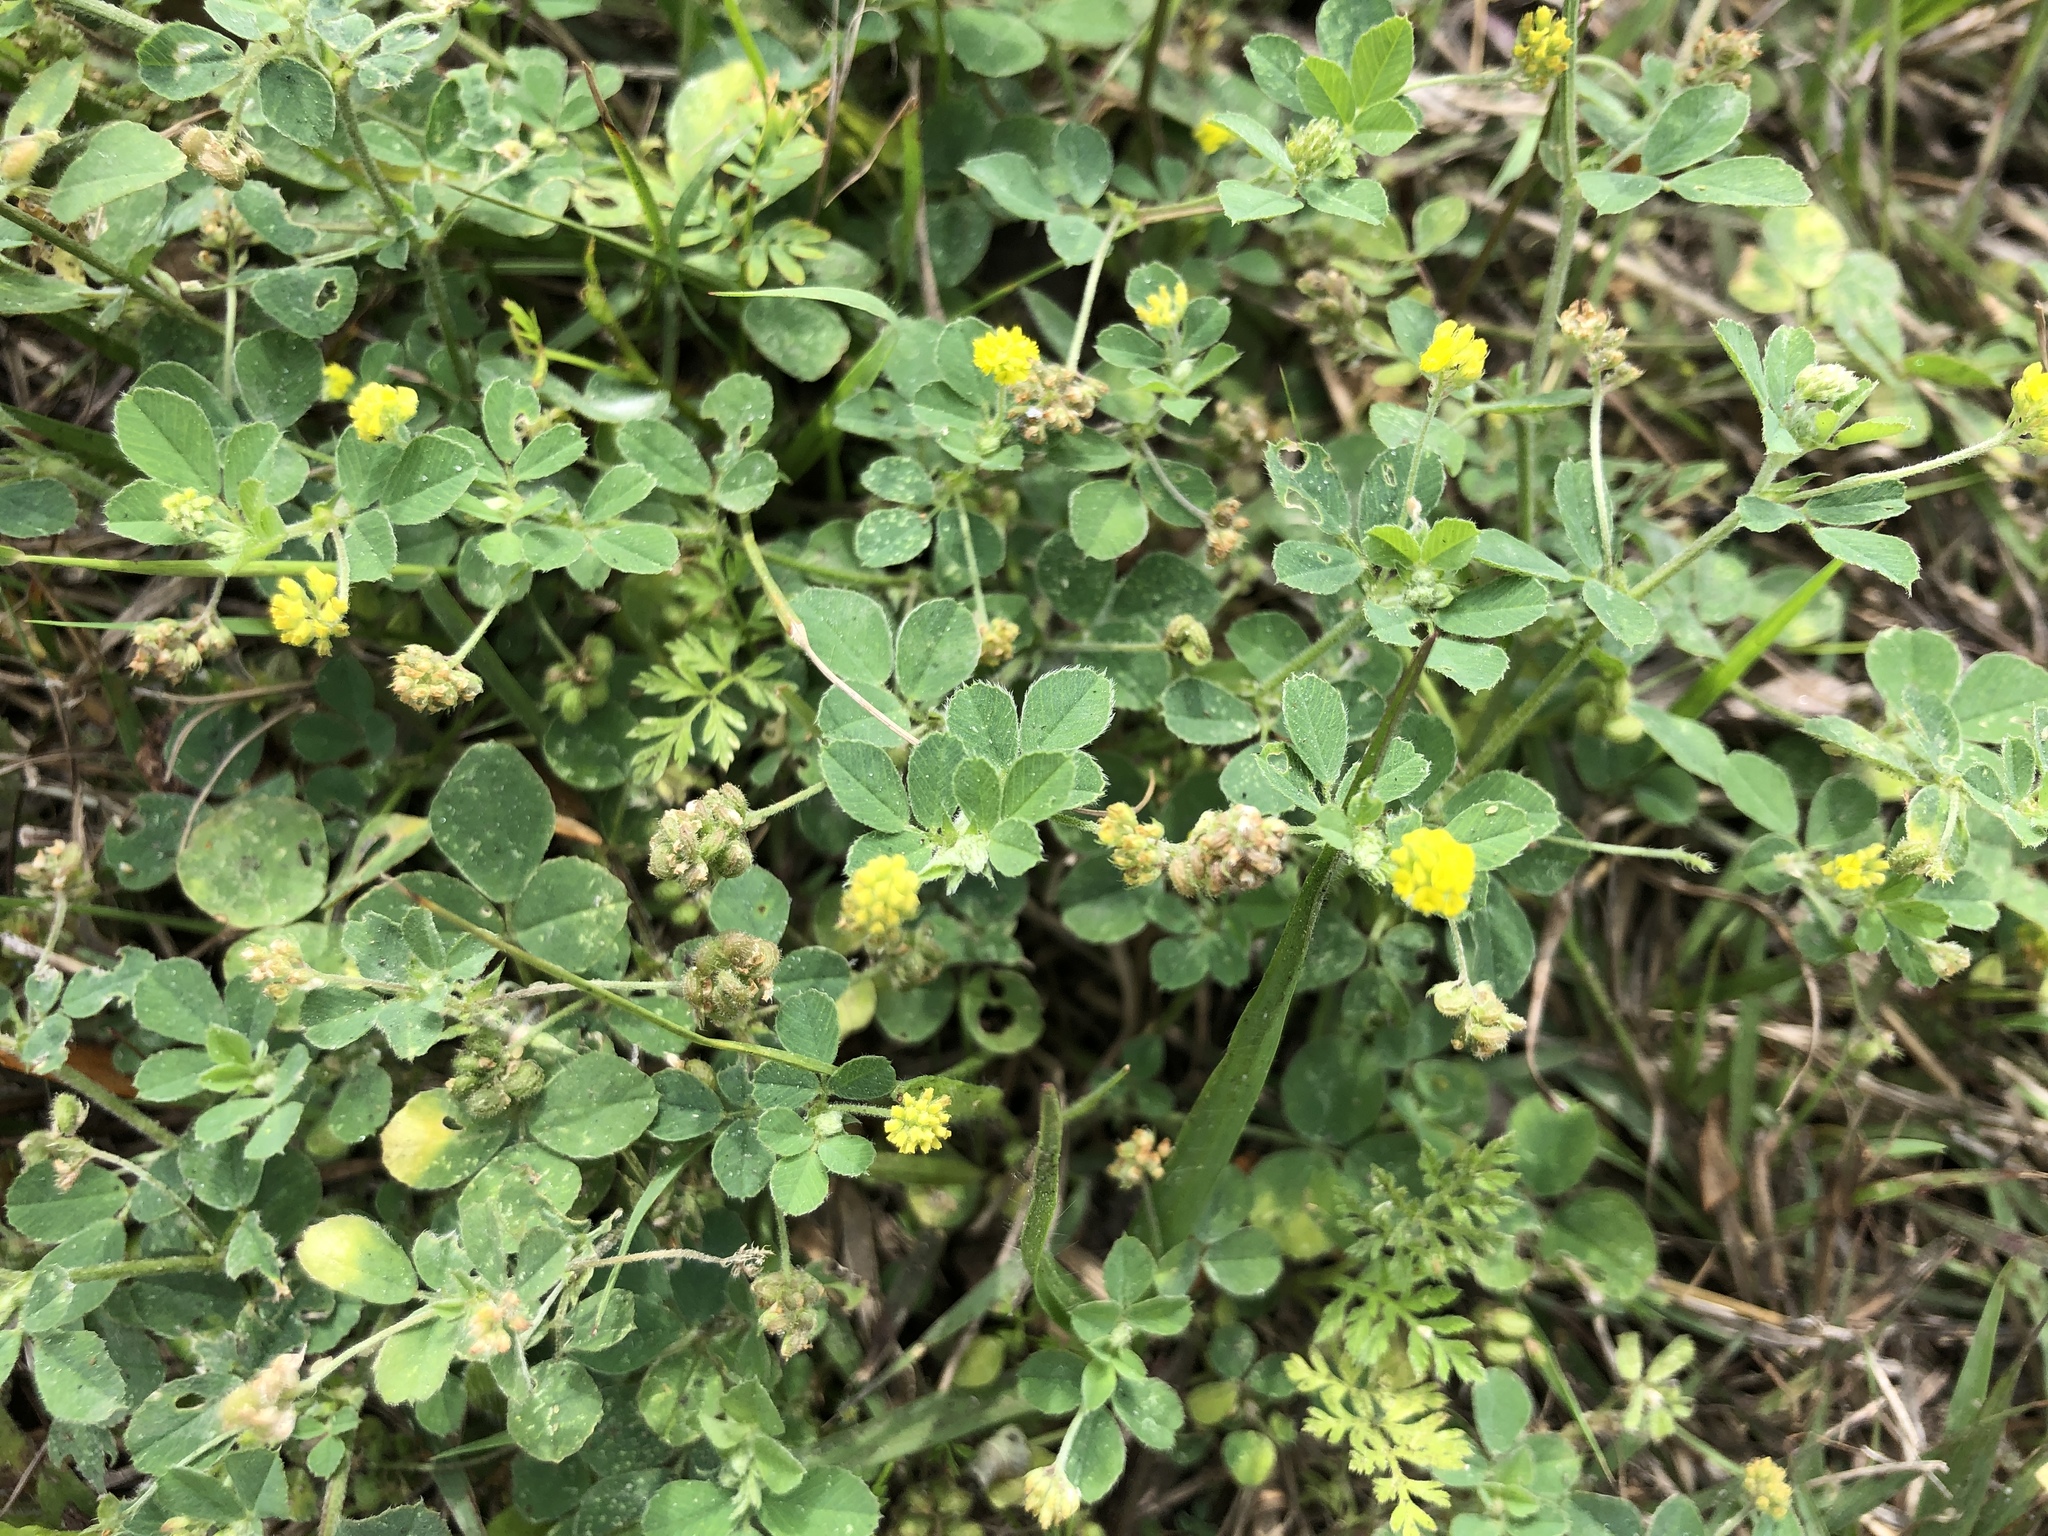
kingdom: Plantae
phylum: Tracheophyta
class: Magnoliopsida
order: Fabales
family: Fabaceae
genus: Medicago
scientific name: Medicago lupulina
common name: Black medick
